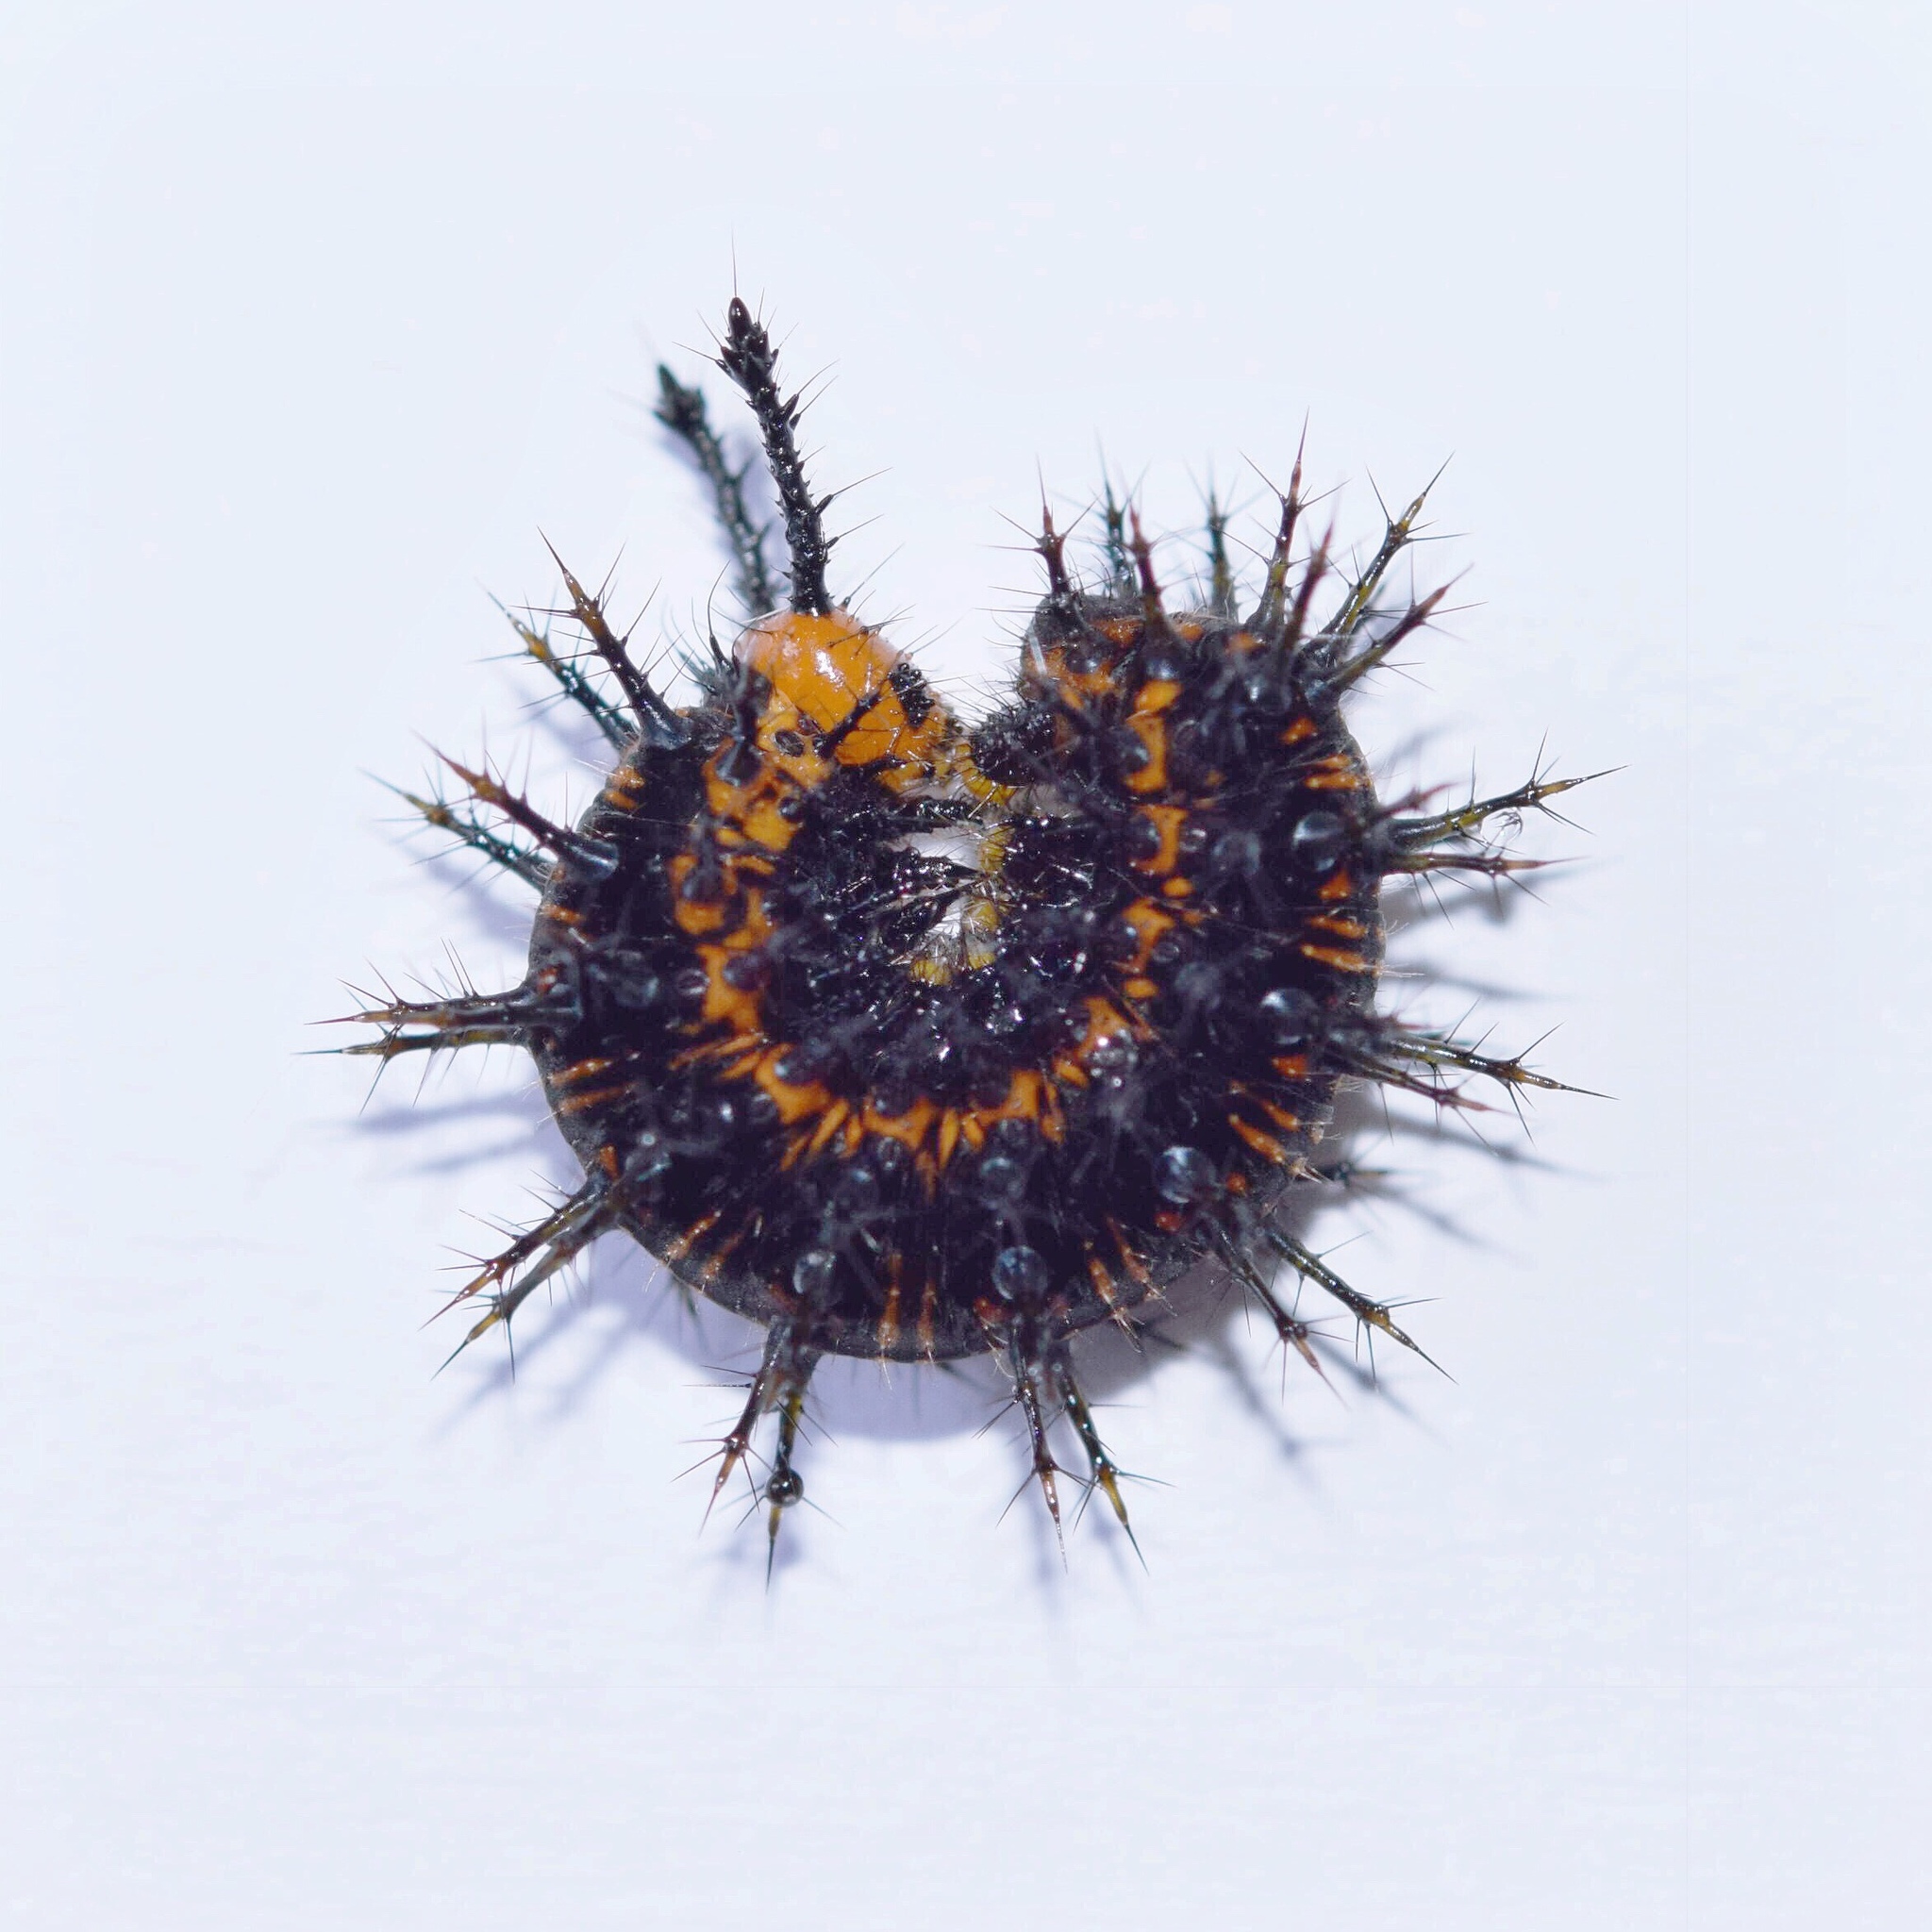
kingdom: Animalia
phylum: Arthropoda
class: Insecta
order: Lepidoptera
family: Nymphalidae
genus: Precis
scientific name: Precis octavia
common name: Gaudy commodore
